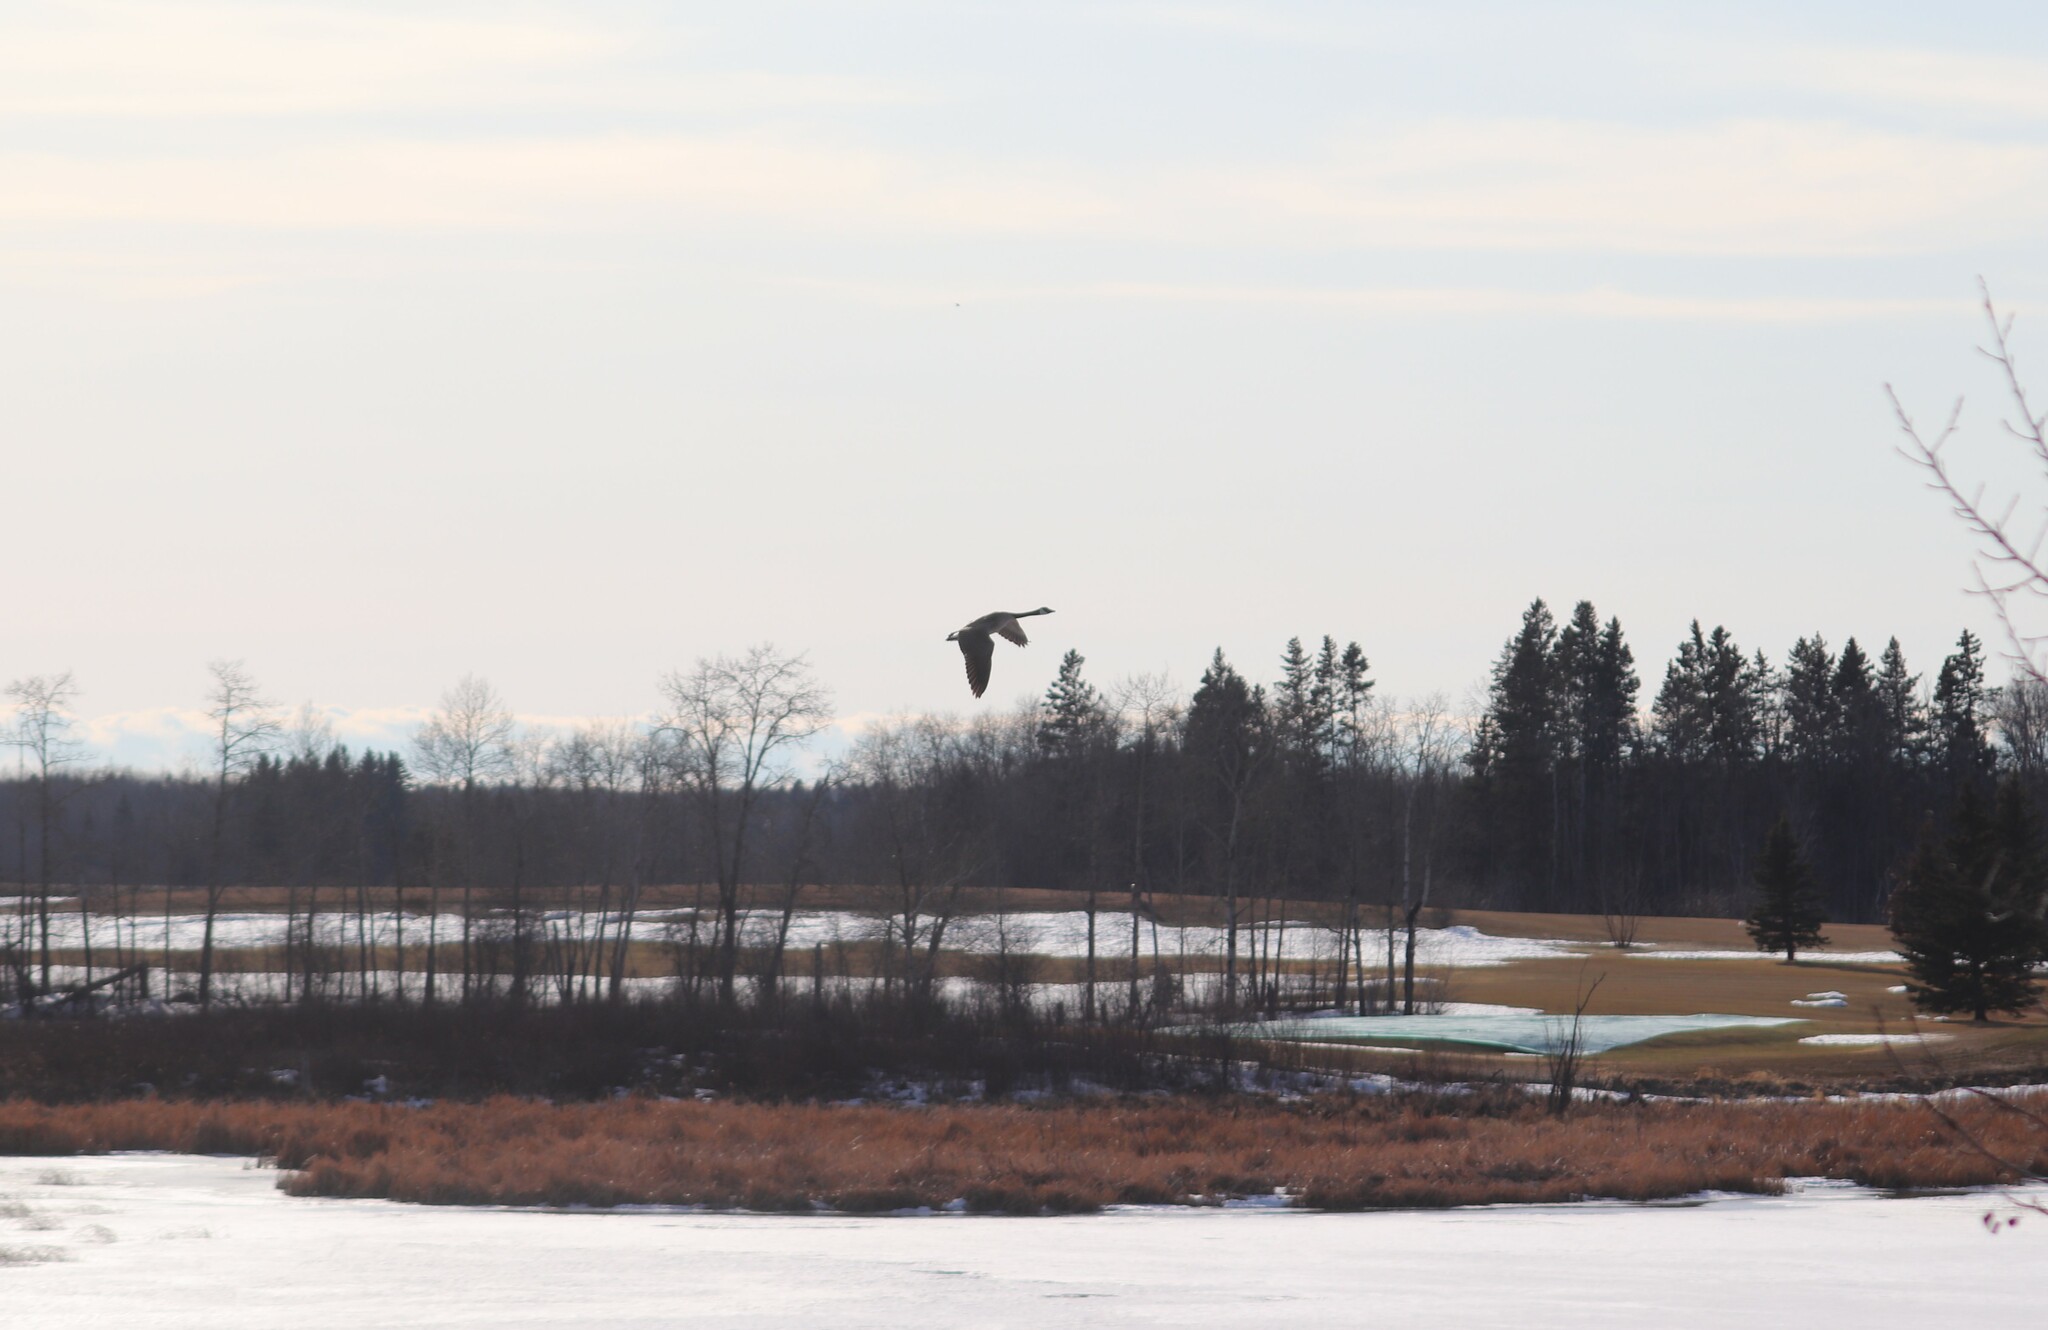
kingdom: Animalia
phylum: Chordata
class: Aves
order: Anseriformes
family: Anatidae
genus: Branta
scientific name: Branta canadensis
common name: Canada goose
